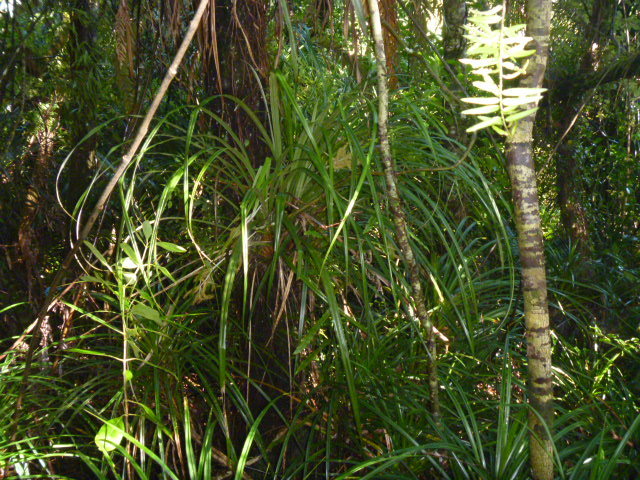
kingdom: Plantae
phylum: Tracheophyta
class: Liliopsida
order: Asparagales
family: Asteliaceae
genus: Astelia
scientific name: Astelia solandri
